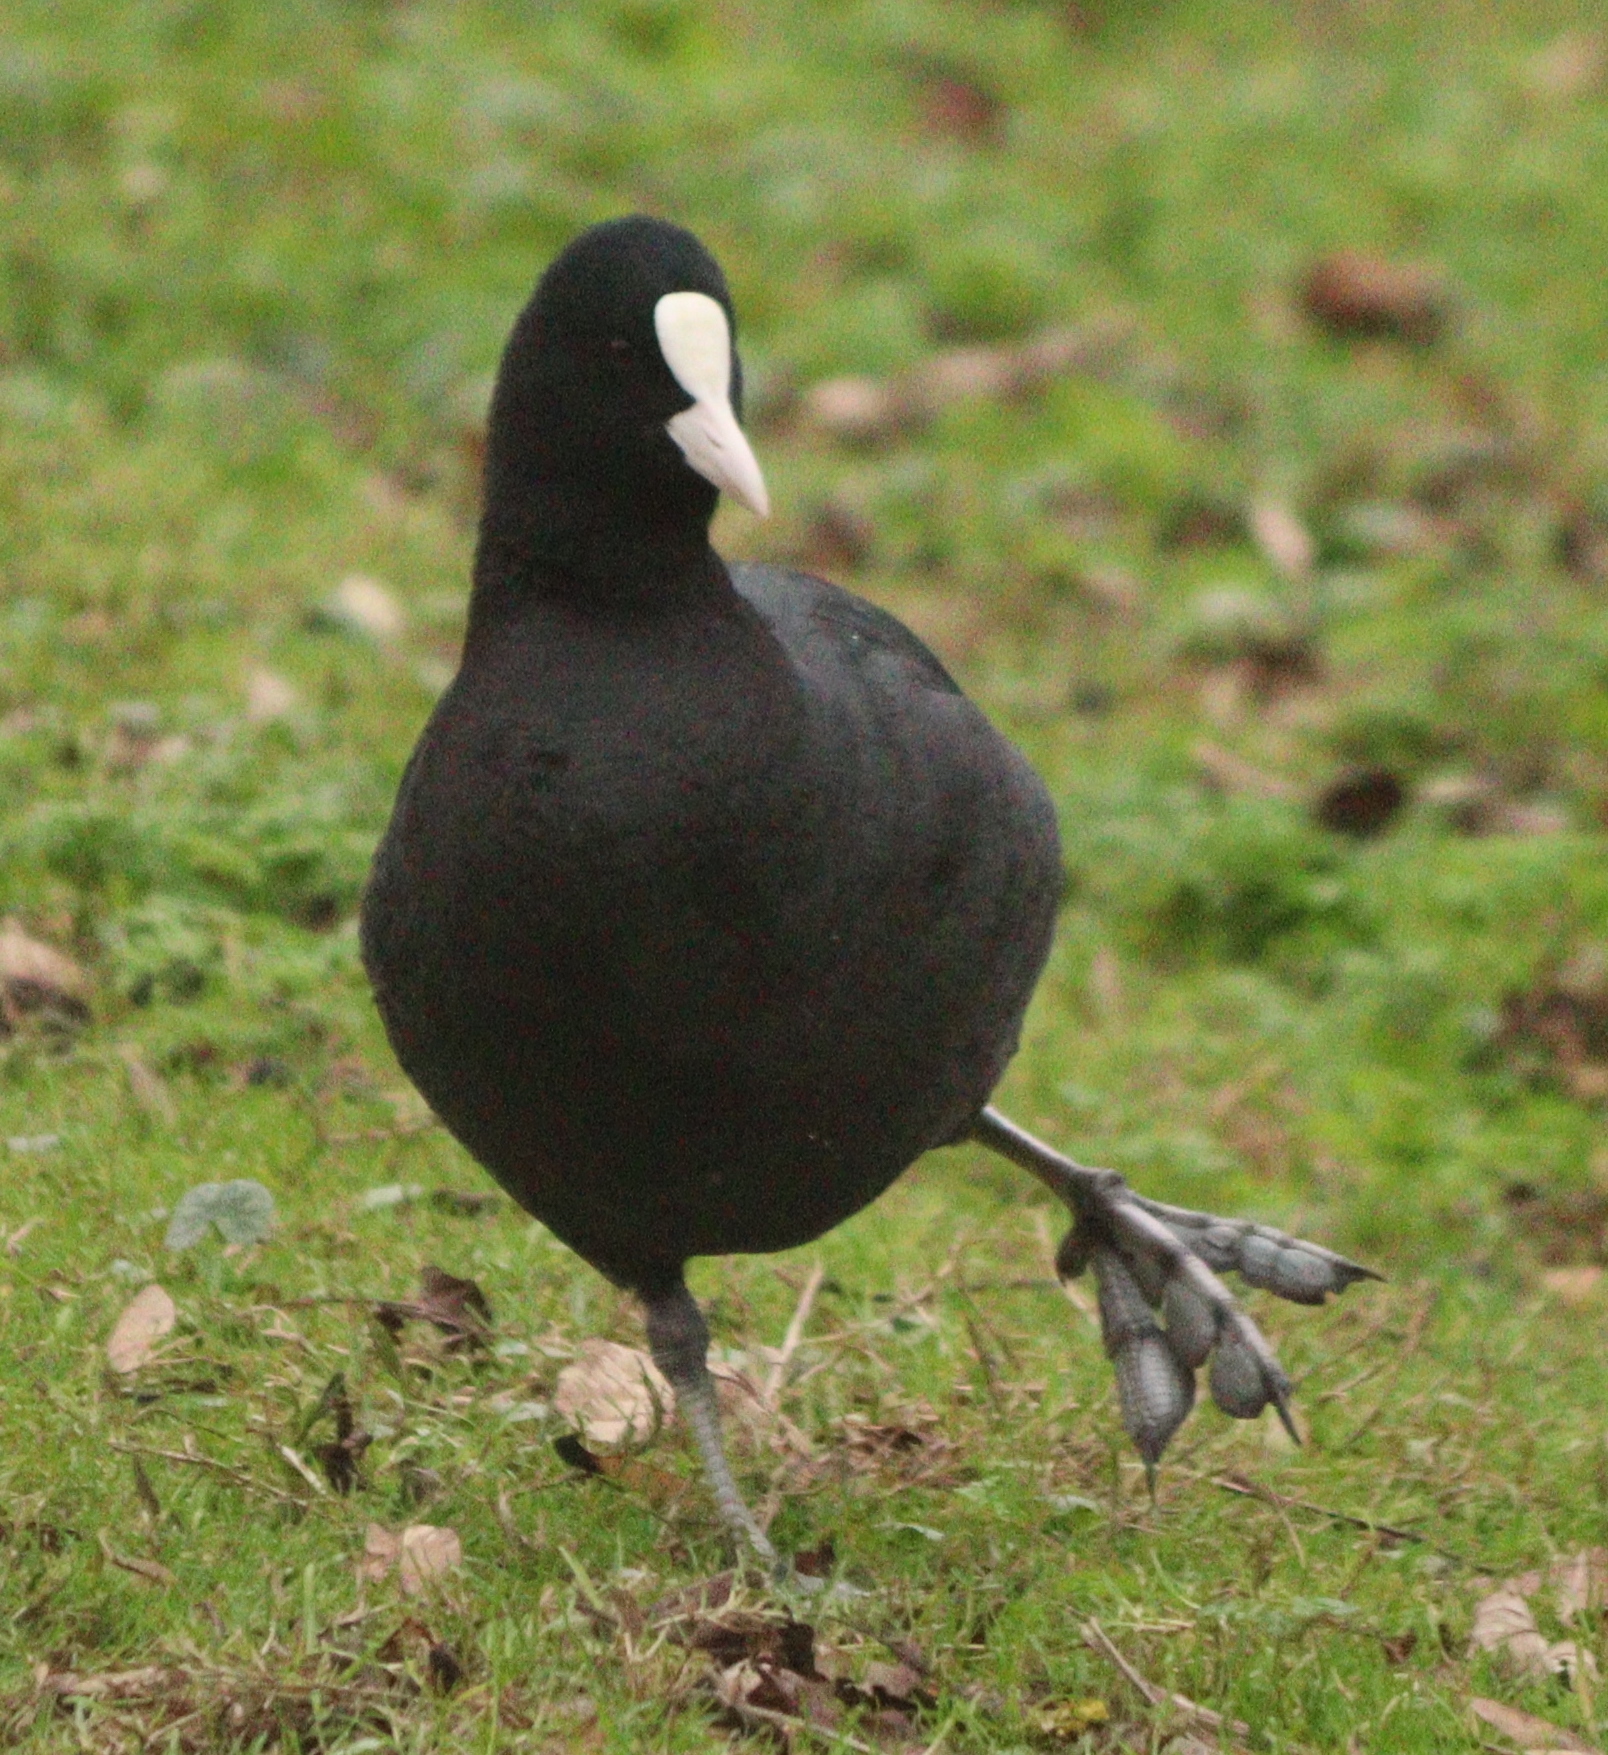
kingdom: Animalia
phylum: Chordata
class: Aves
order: Gruiformes
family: Rallidae
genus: Fulica
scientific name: Fulica atra
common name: Eurasian coot
